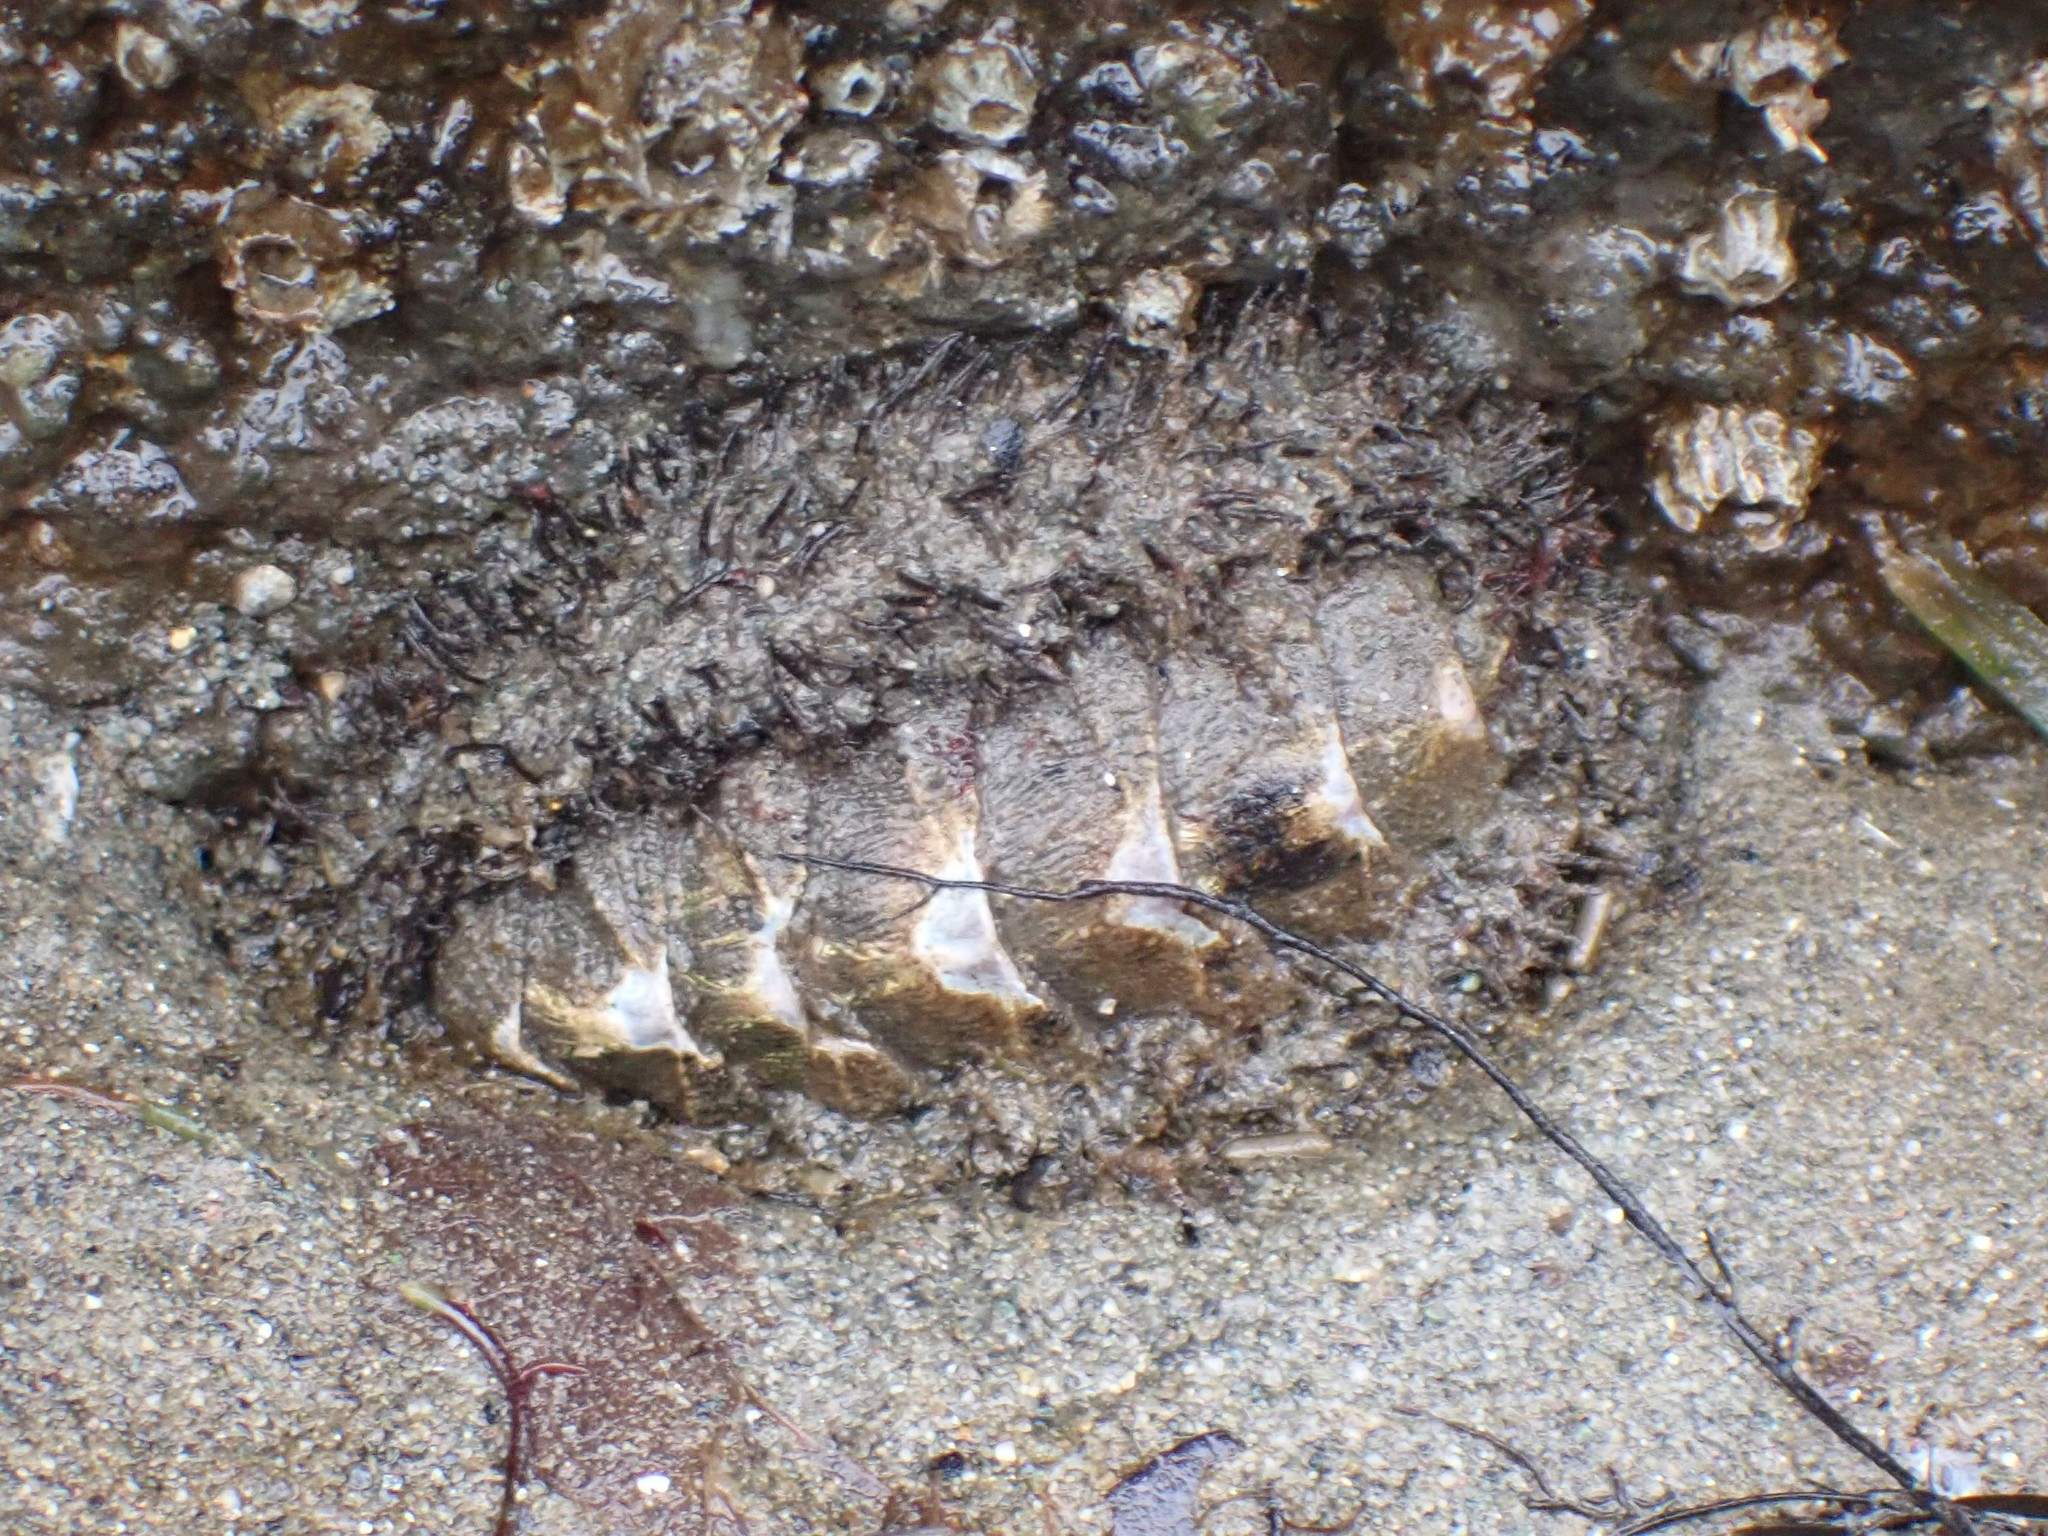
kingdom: Animalia
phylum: Mollusca
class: Polyplacophora
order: Chitonida
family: Mopaliidae
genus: Mopalia
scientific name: Mopalia muscosa
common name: Mossy chiton
